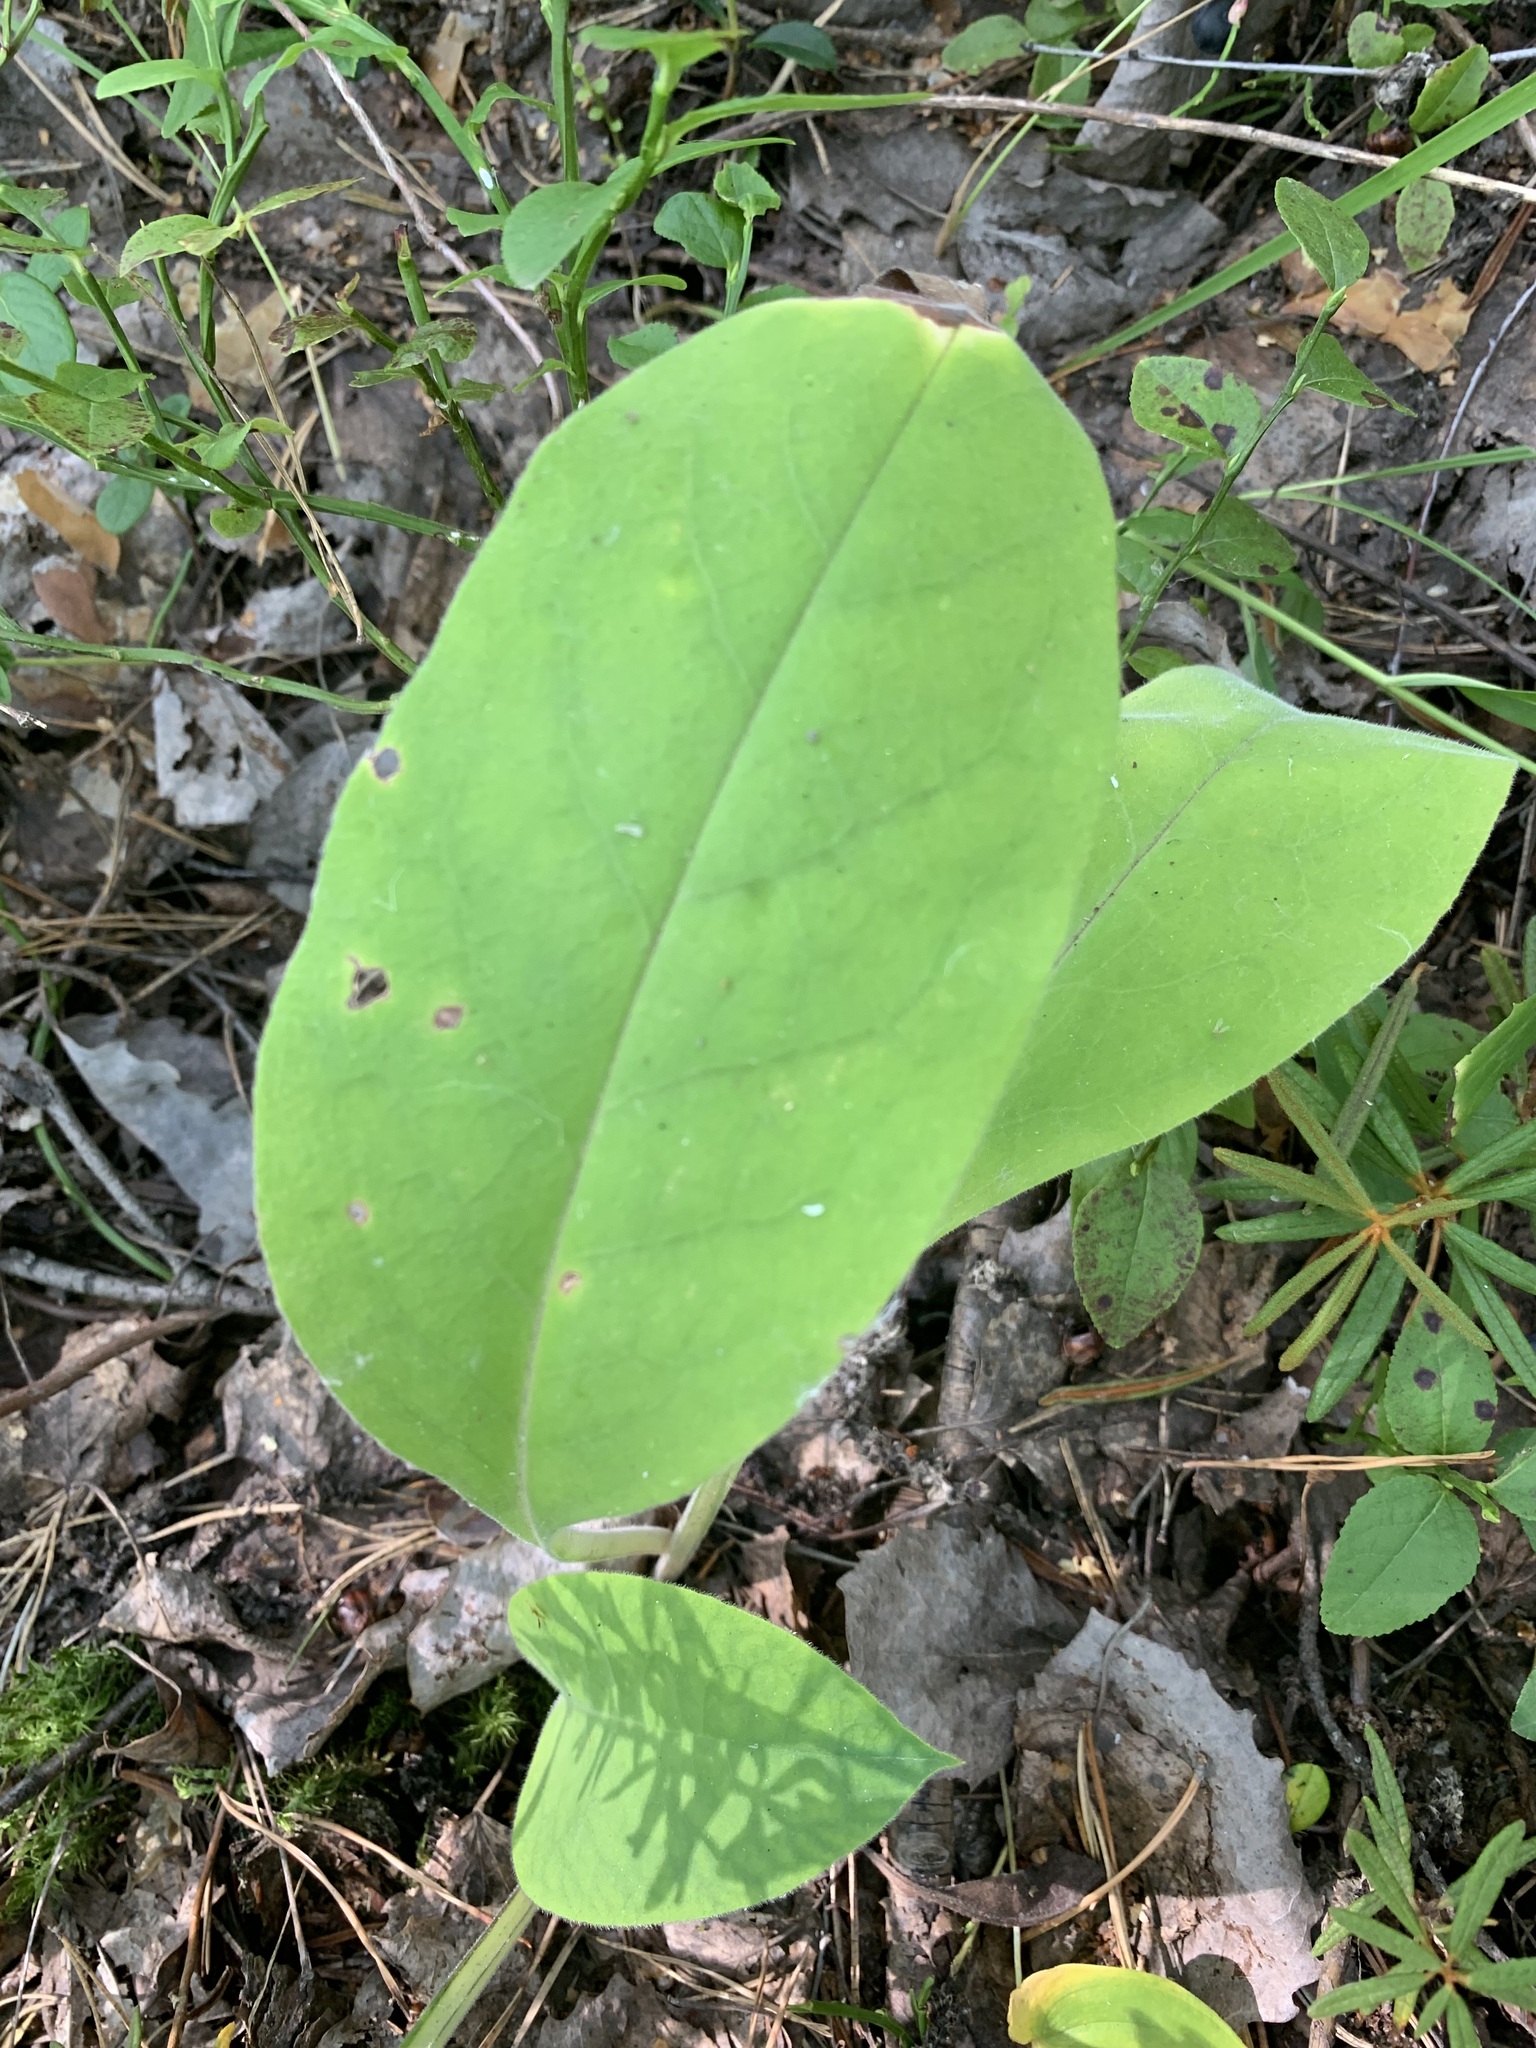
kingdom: Plantae
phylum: Tracheophyta
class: Magnoliopsida
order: Boraginales
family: Boraginaceae
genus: Pulmonaria
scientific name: Pulmonaria mollis
